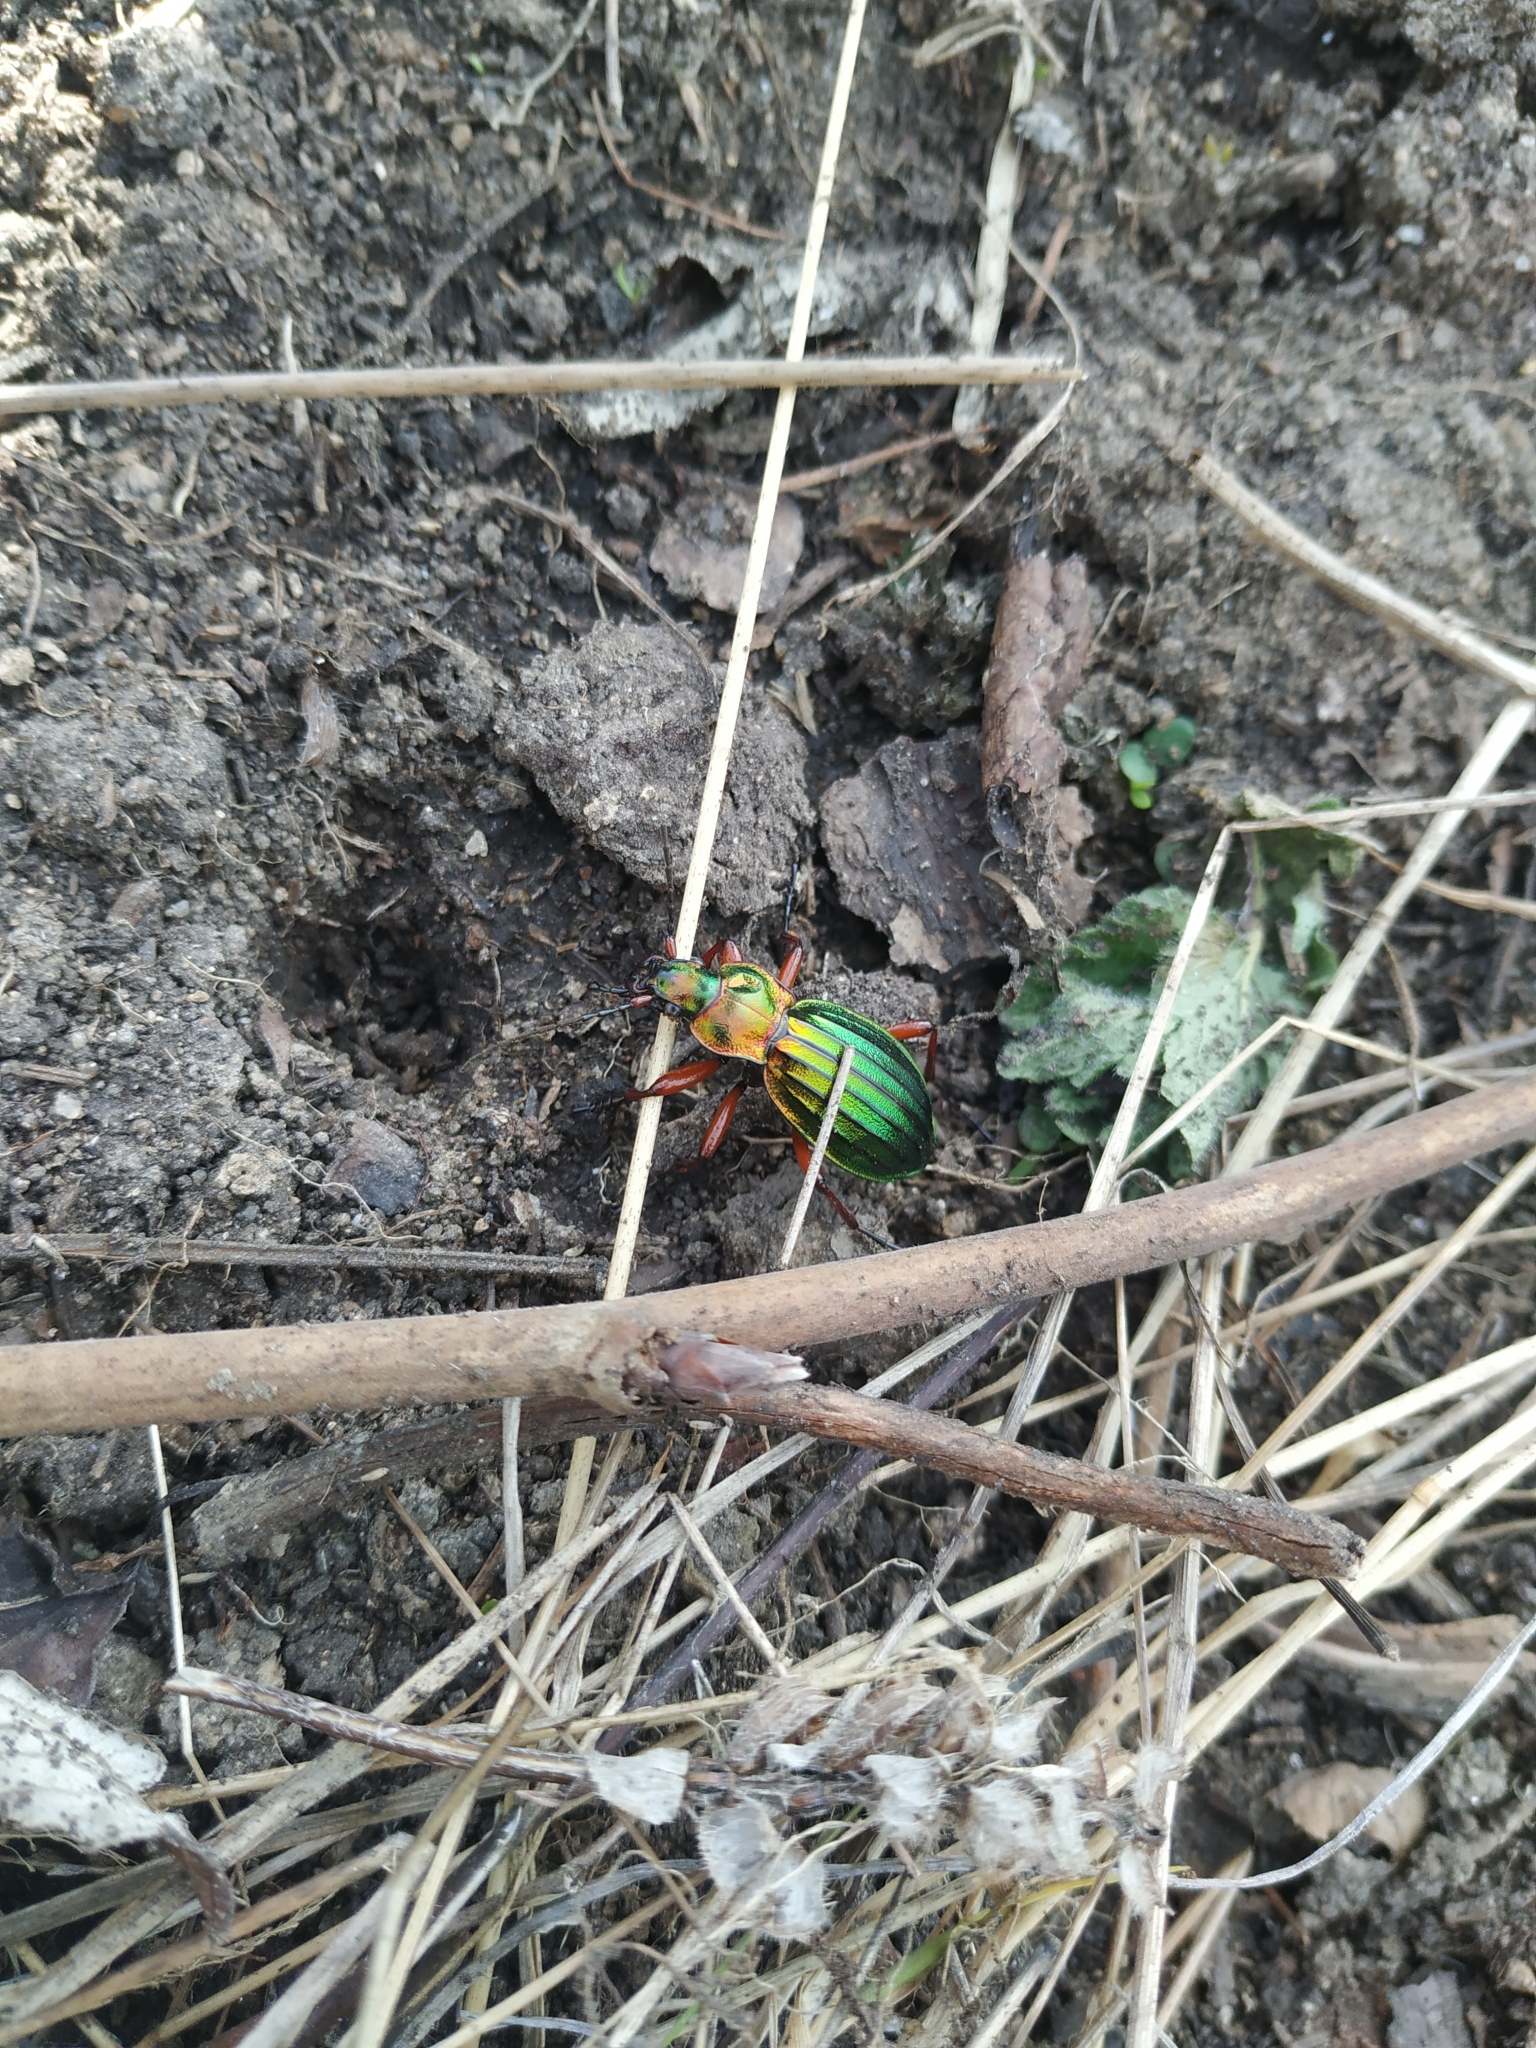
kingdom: Animalia
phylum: Arthropoda
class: Insecta
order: Coleoptera
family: Carabidae
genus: Carabus
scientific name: Carabus auronitens
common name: Carabus auronitens
